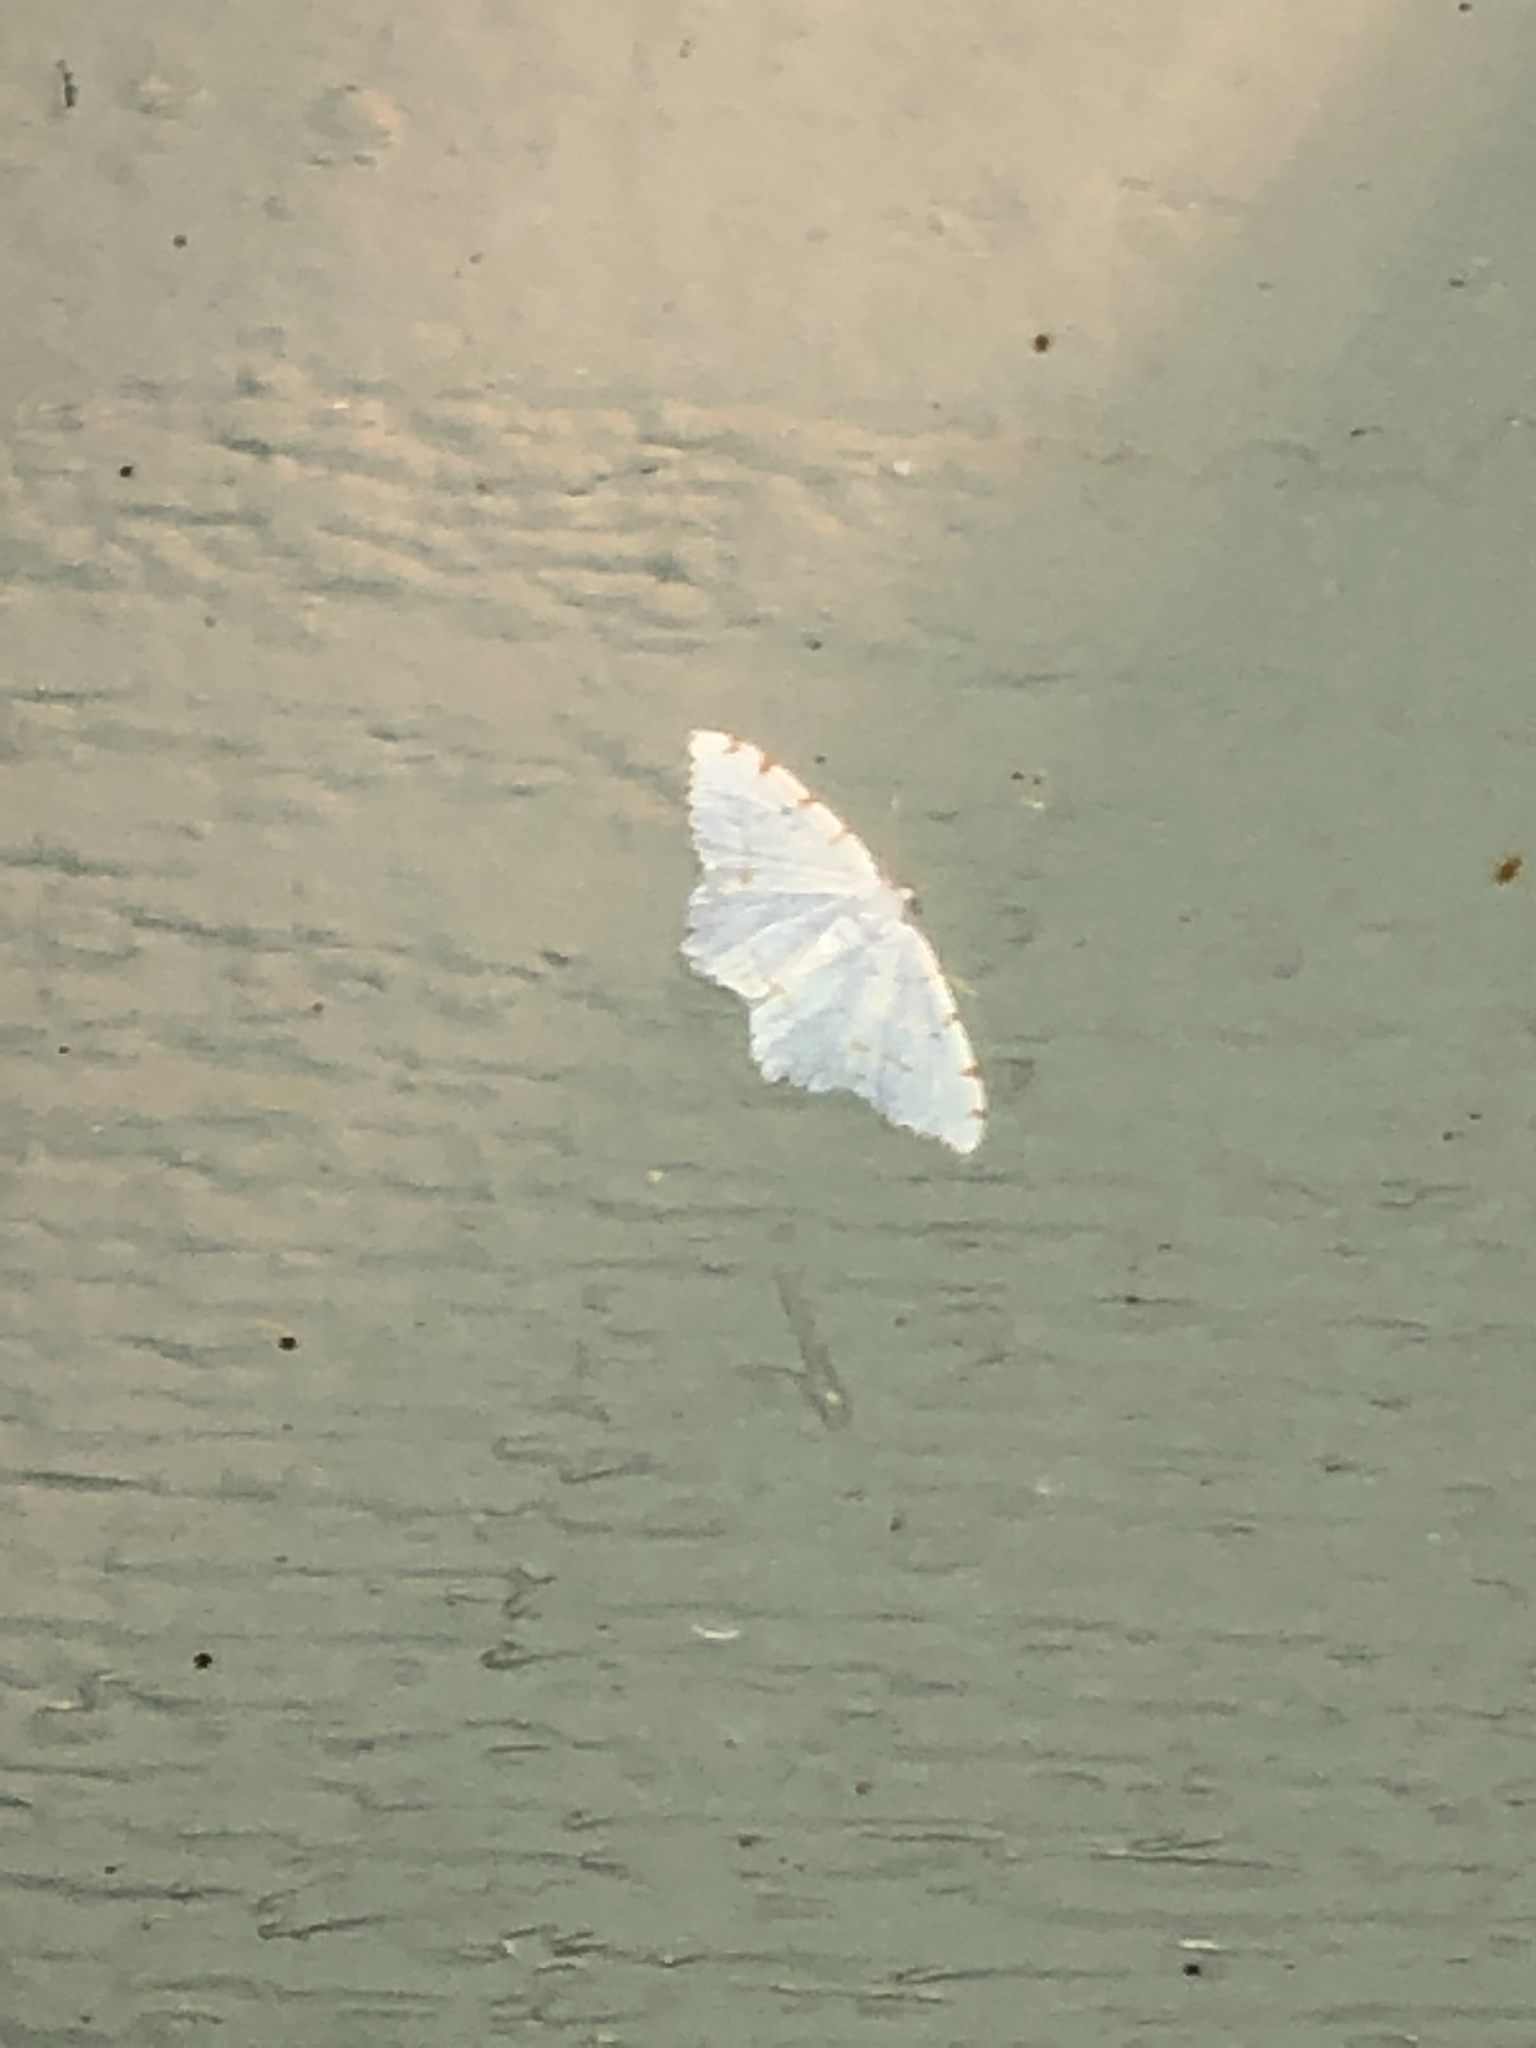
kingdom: Animalia
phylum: Arthropoda
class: Insecta
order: Lepidoptera
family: Geometridae
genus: Macaria
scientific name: Macaria pustularia
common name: Lesser maple spanworm moth
